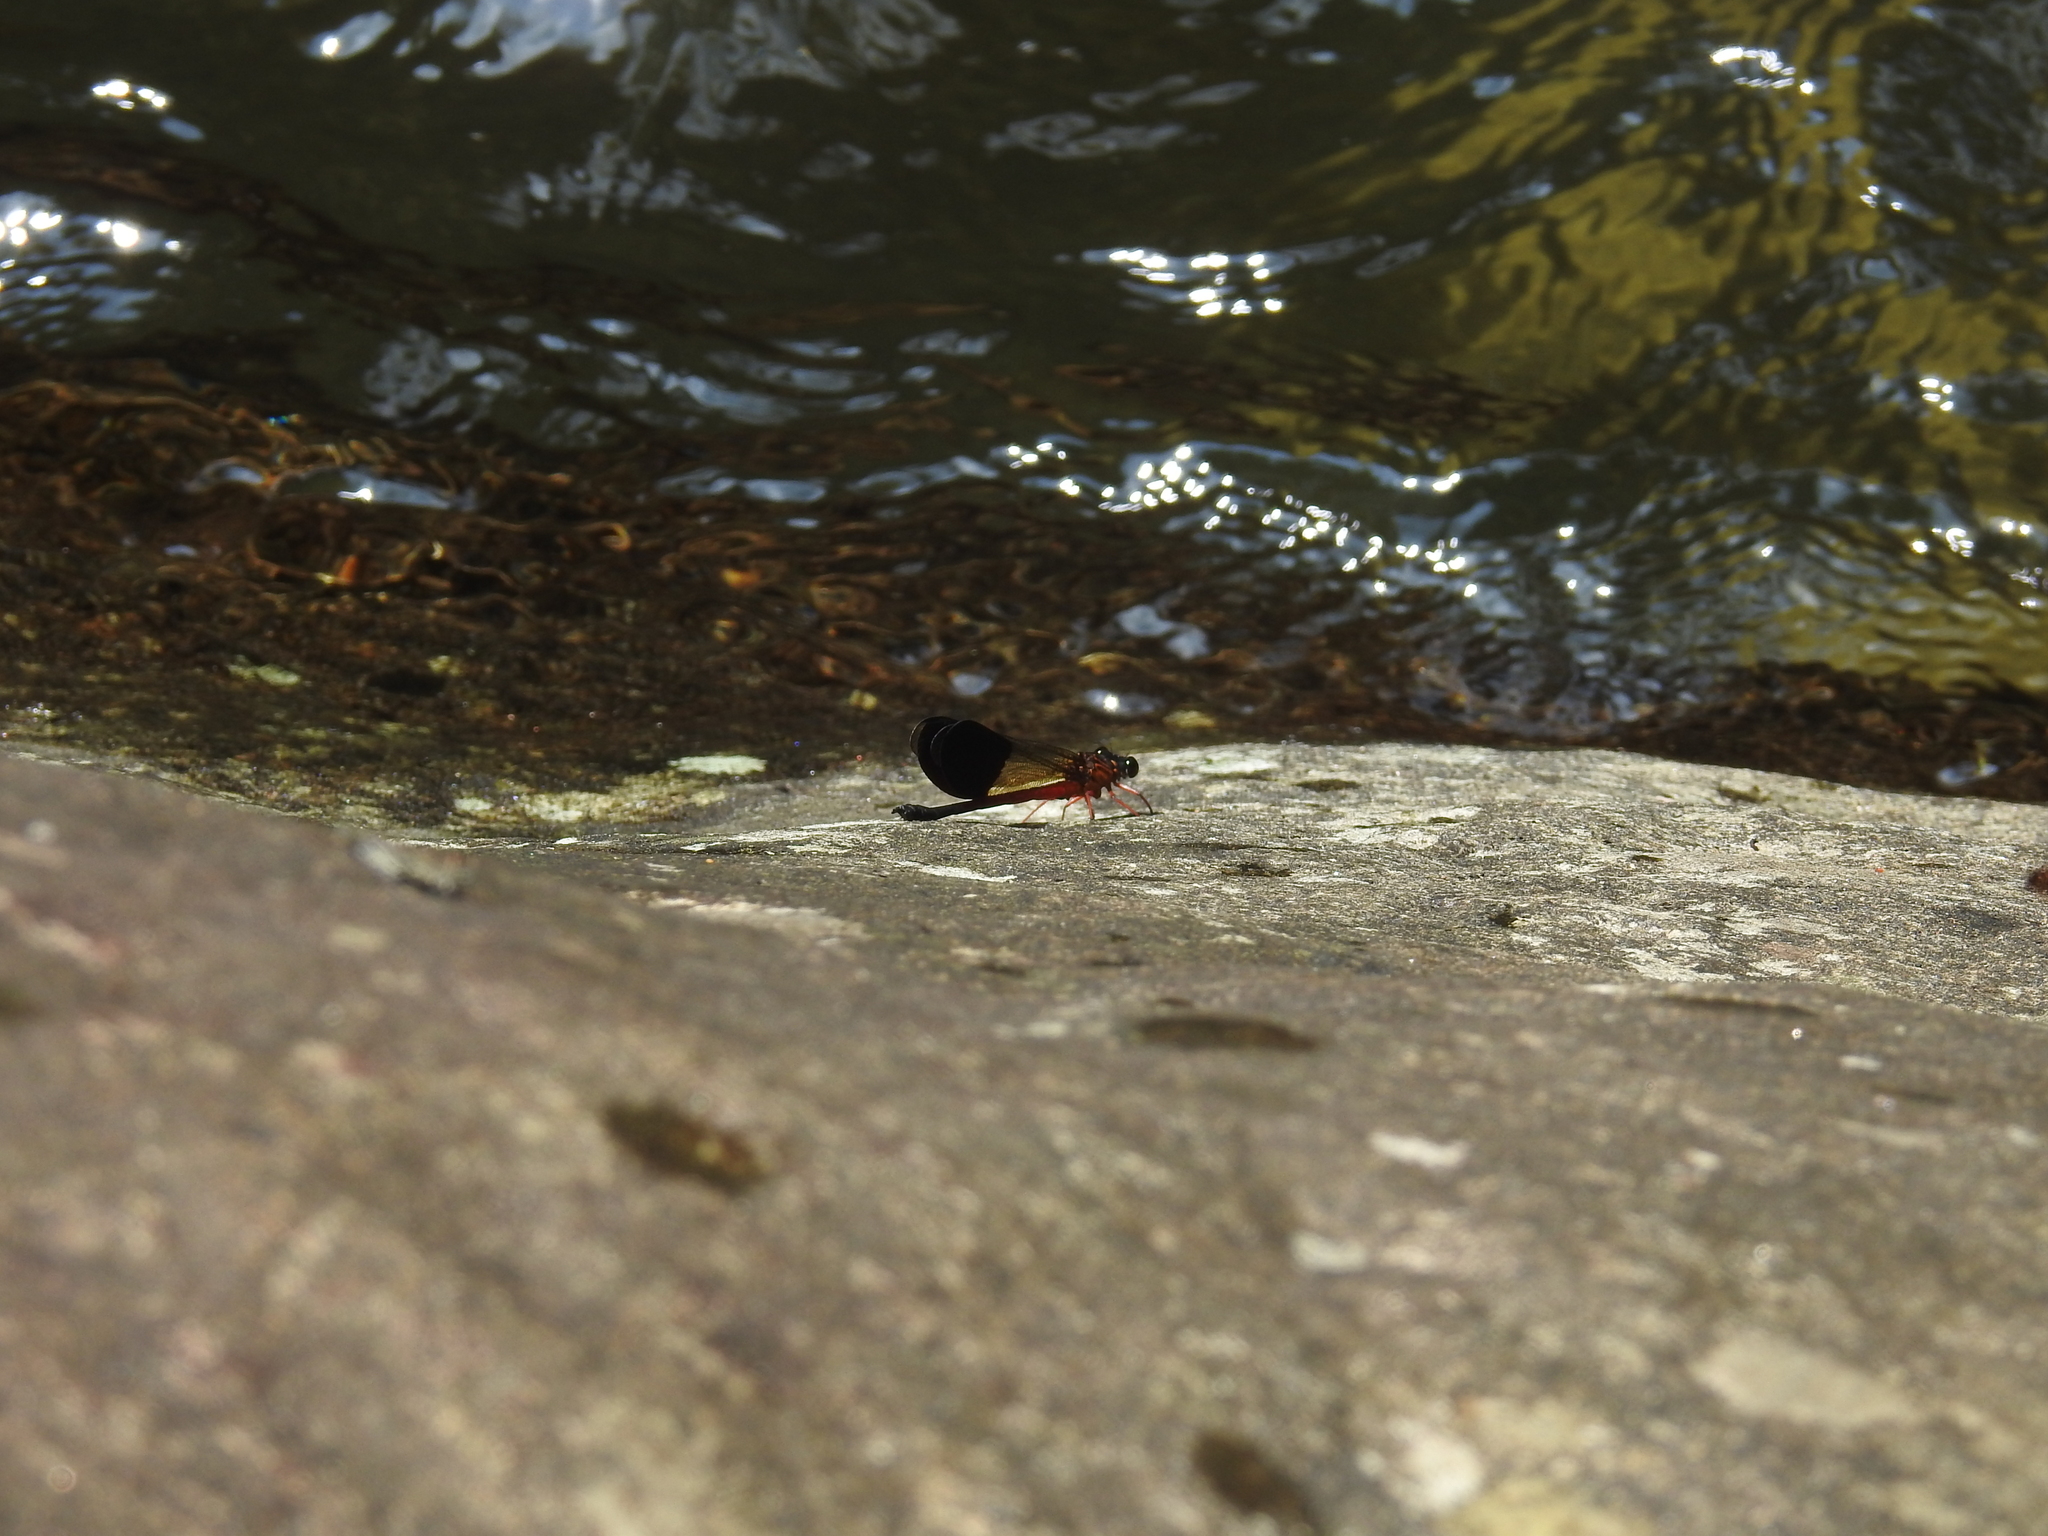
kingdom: Animalia
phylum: Arthropoda
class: Insecta
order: Odonata
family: Euphaeidae
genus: Euphaea
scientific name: Euphaea cardinalis
